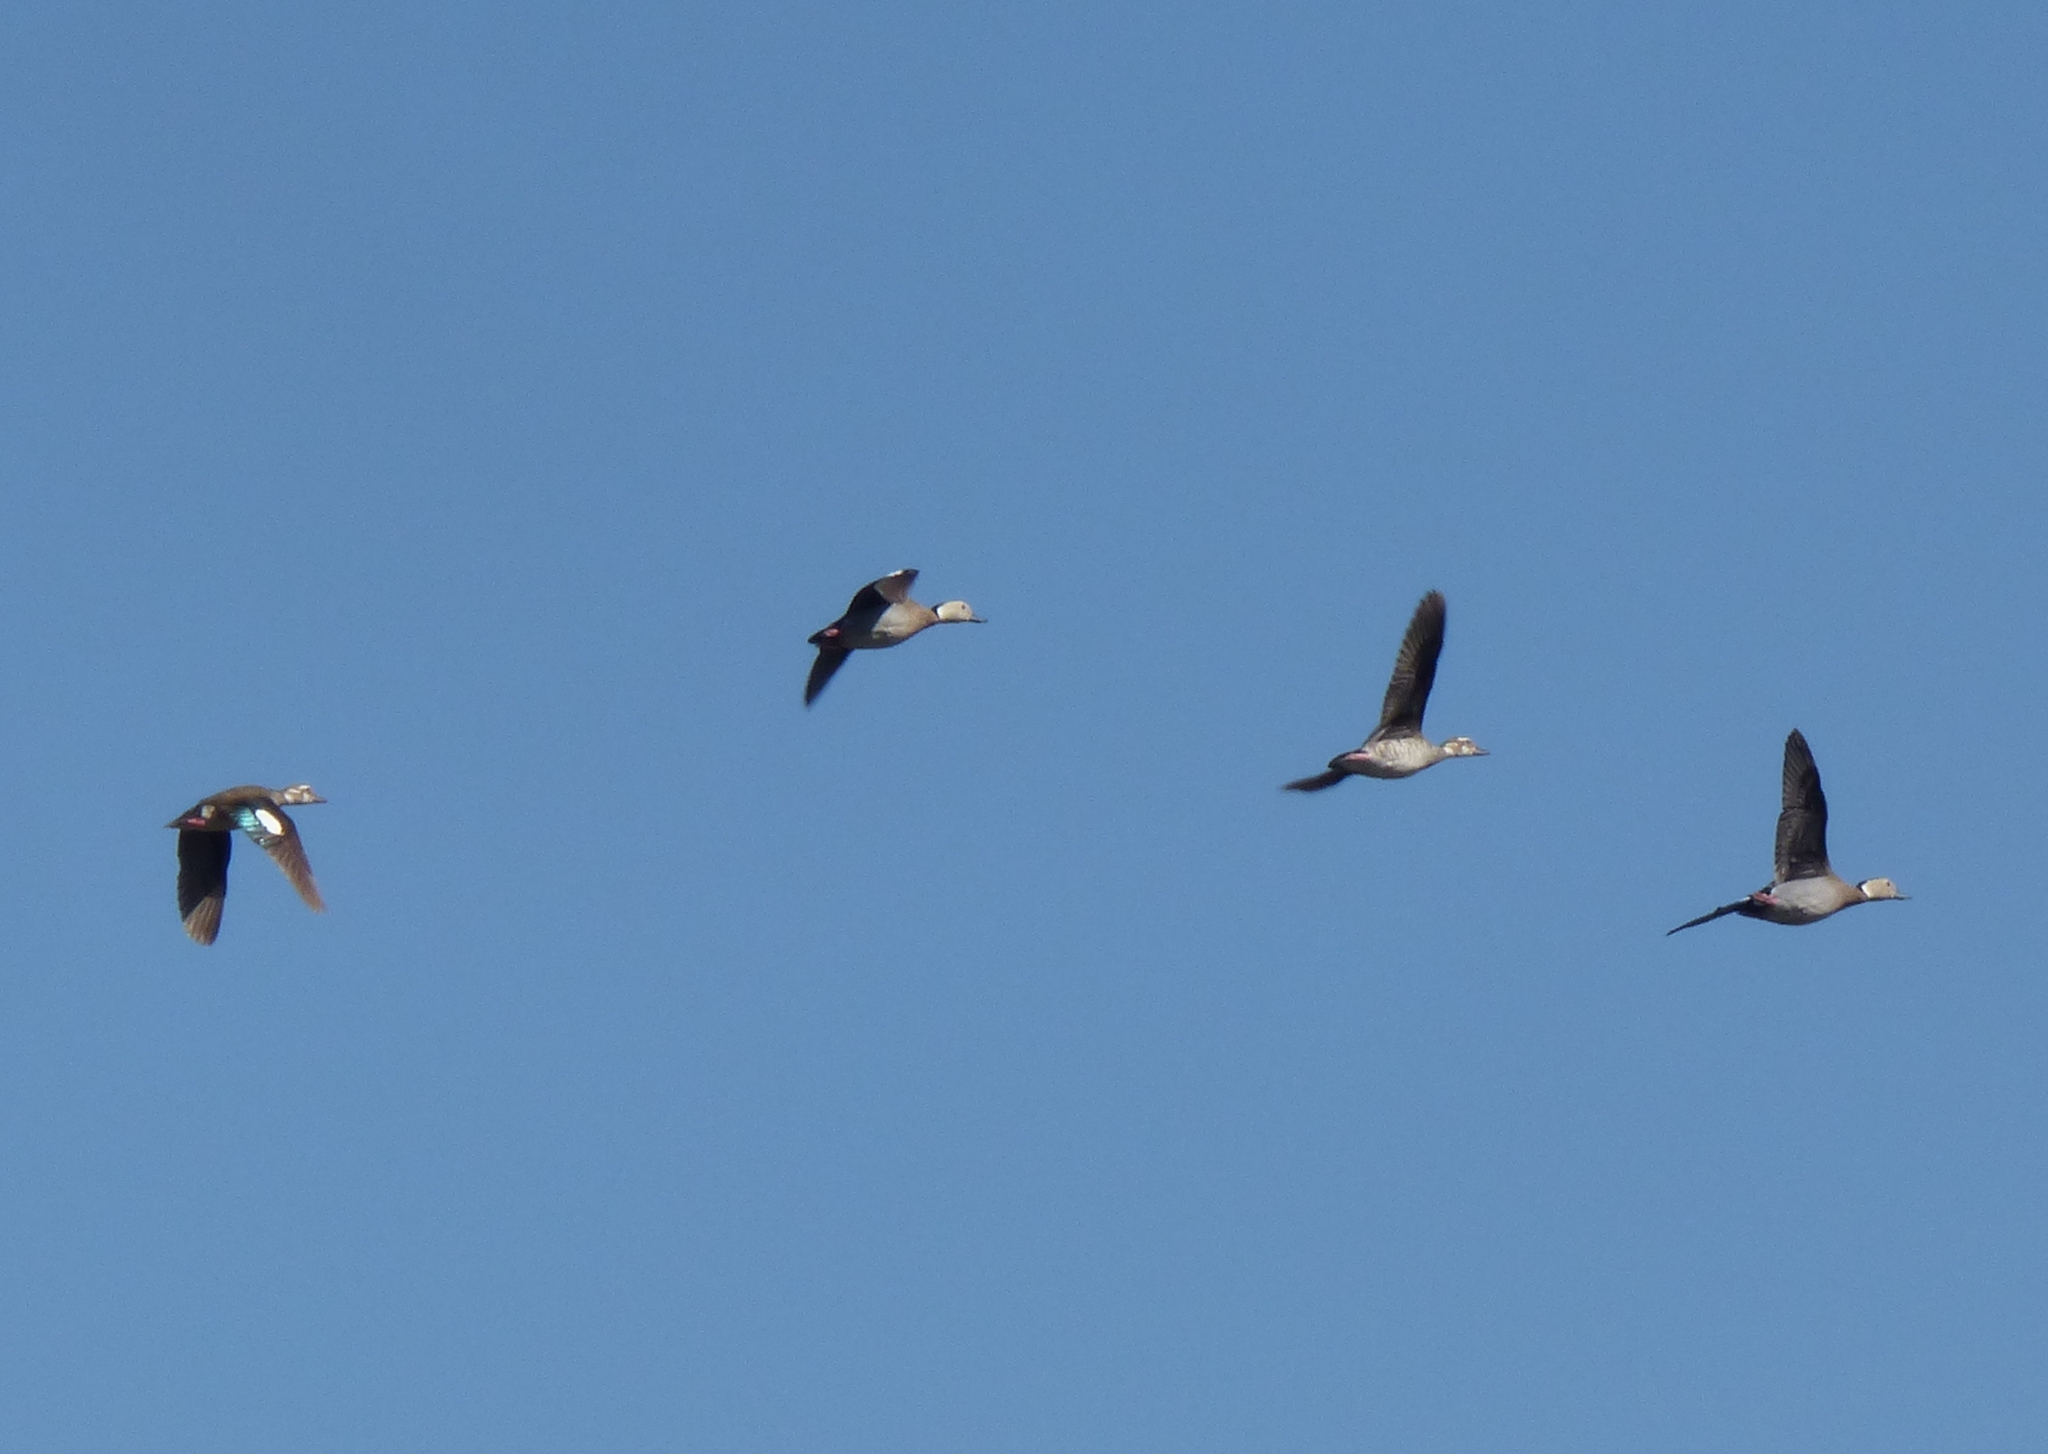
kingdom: Animalia
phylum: Chordata
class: Aves
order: Anseriformes
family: Anatidae
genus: Callonetta
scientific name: Callonetta leucophrys
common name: Ringed teal
